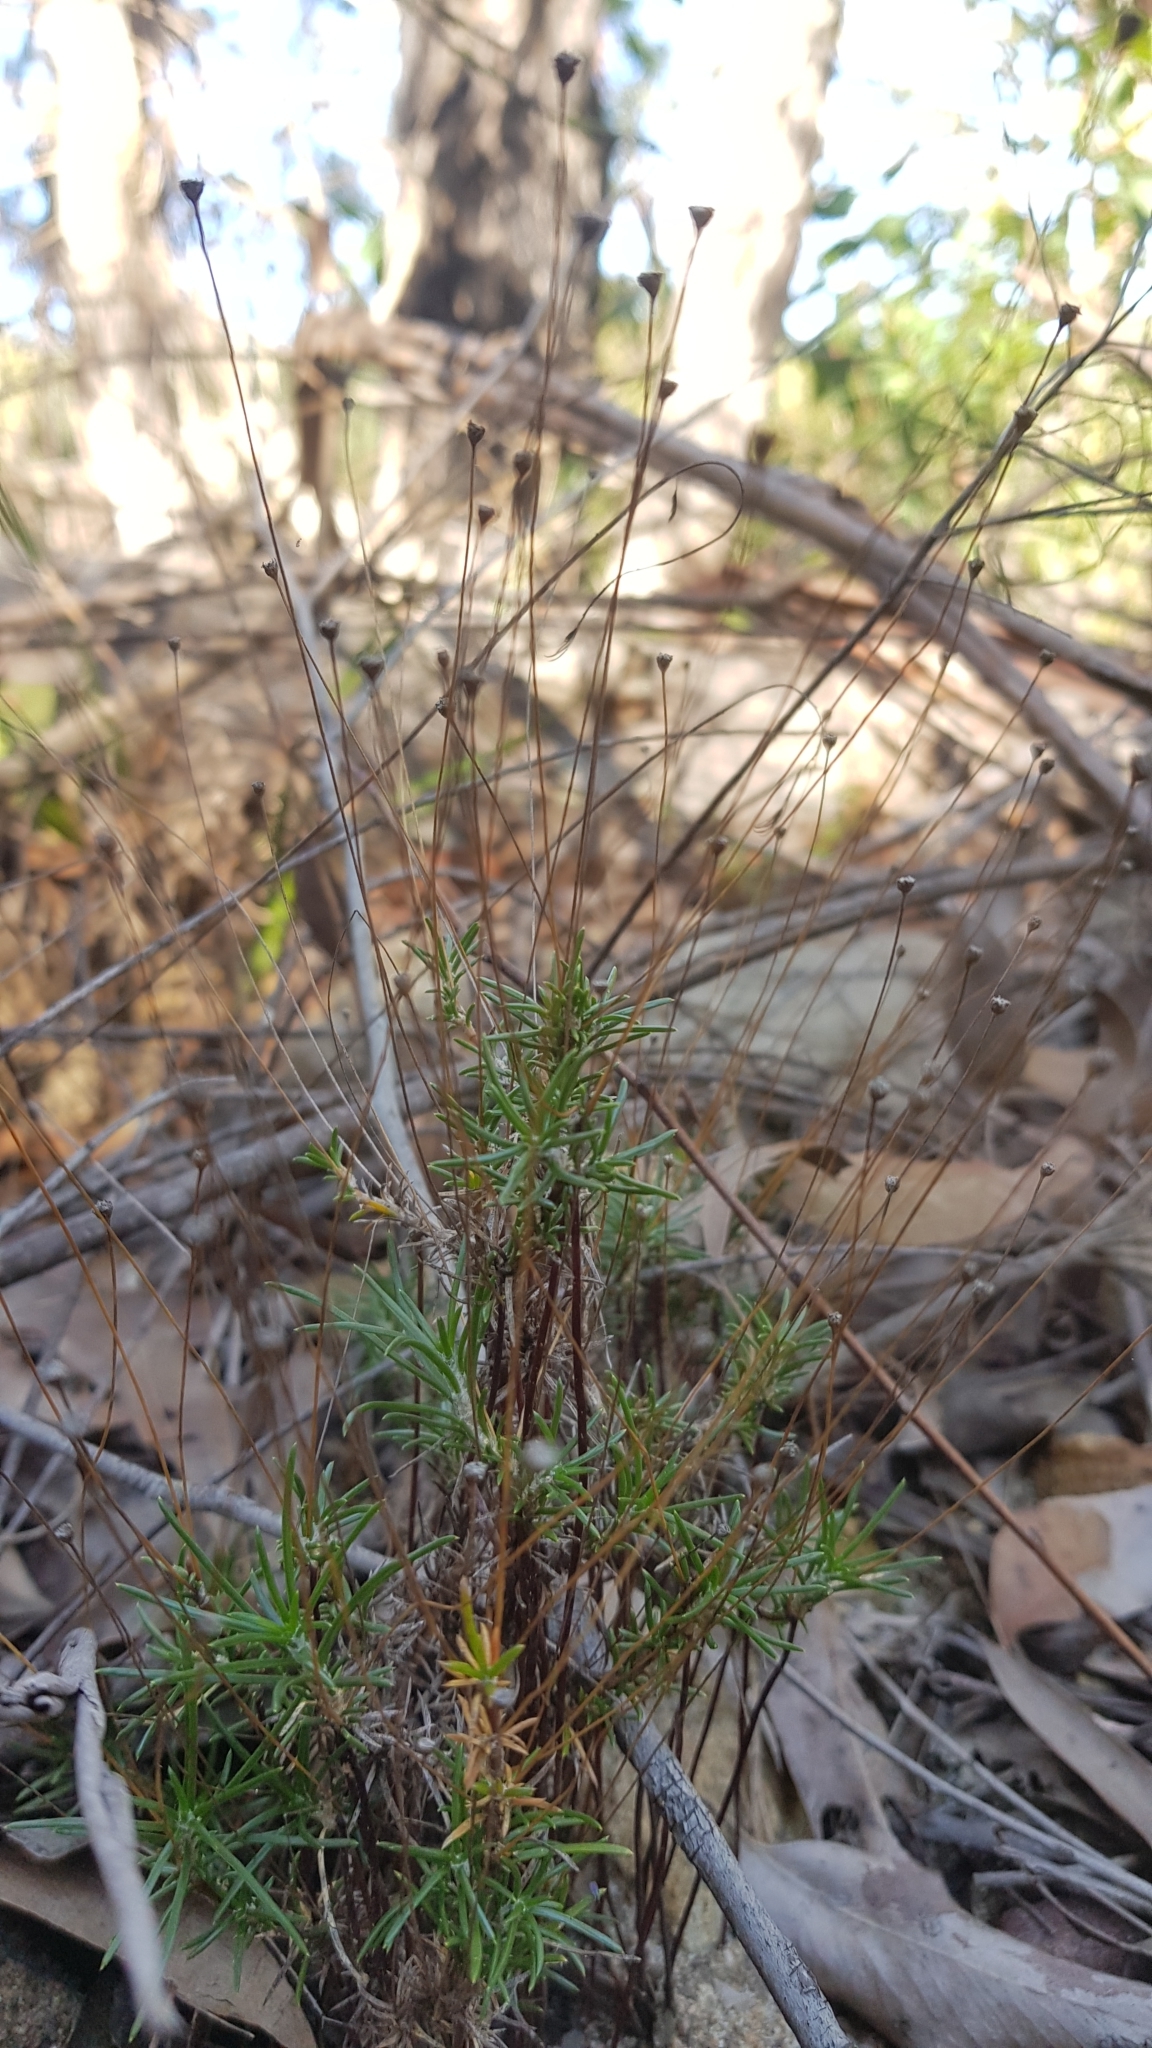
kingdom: Plantae
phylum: Tracheophyta
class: Liliopsida
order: Asparagales
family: Asparagaceae
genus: Laxmannia
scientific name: Laxmannia gracilis
